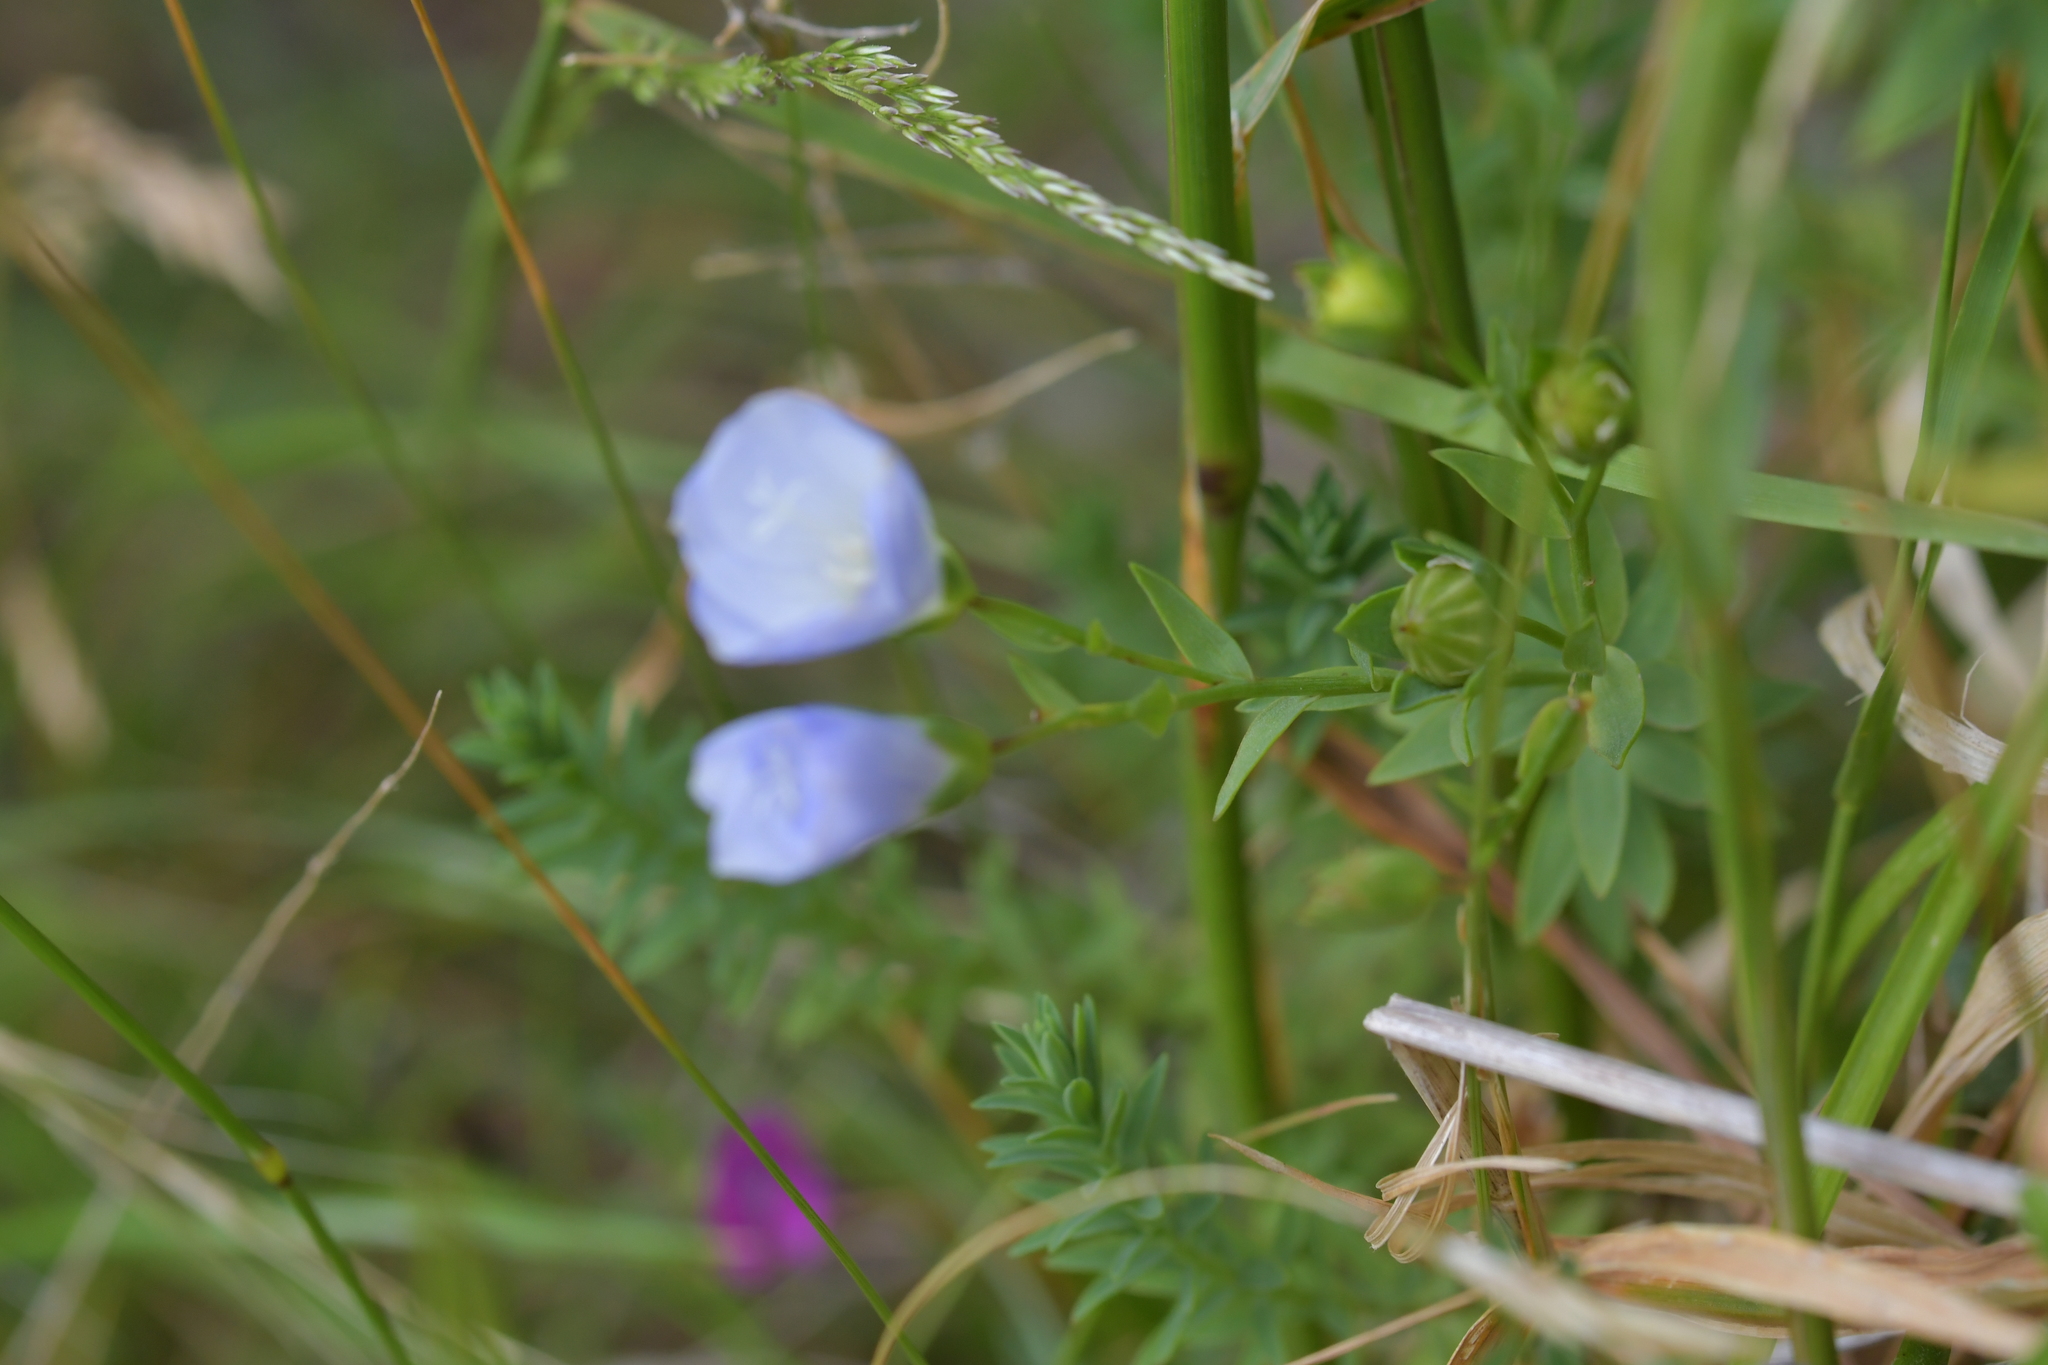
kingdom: Plantae
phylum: Tracheophyta
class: Magnoliopsida
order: Malpighiales
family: Linaceae
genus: Linum
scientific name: Linum bienne
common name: Pale flax
